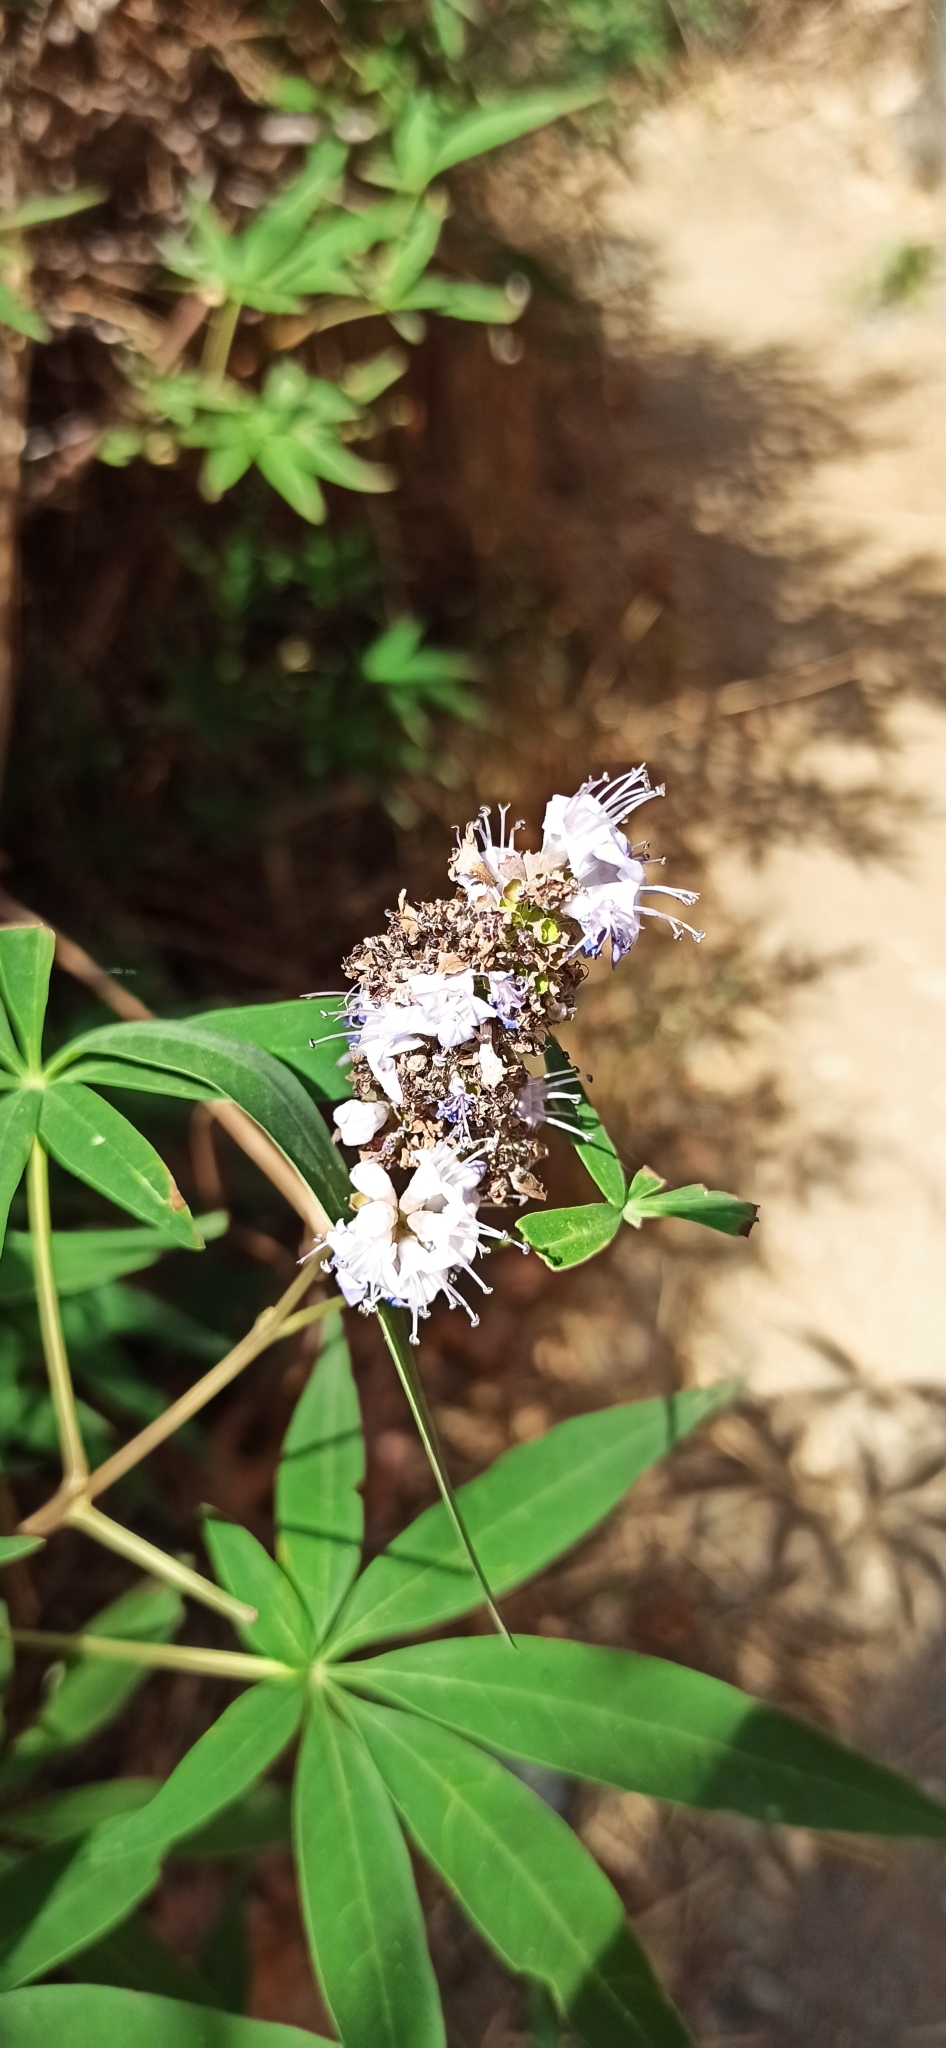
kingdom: Plantae
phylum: Tracheophyta
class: Magnoliopsida
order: Lamiales
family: Lamiaceae
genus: Vitex
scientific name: Vitex agnus-castus
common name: Chasteberry
